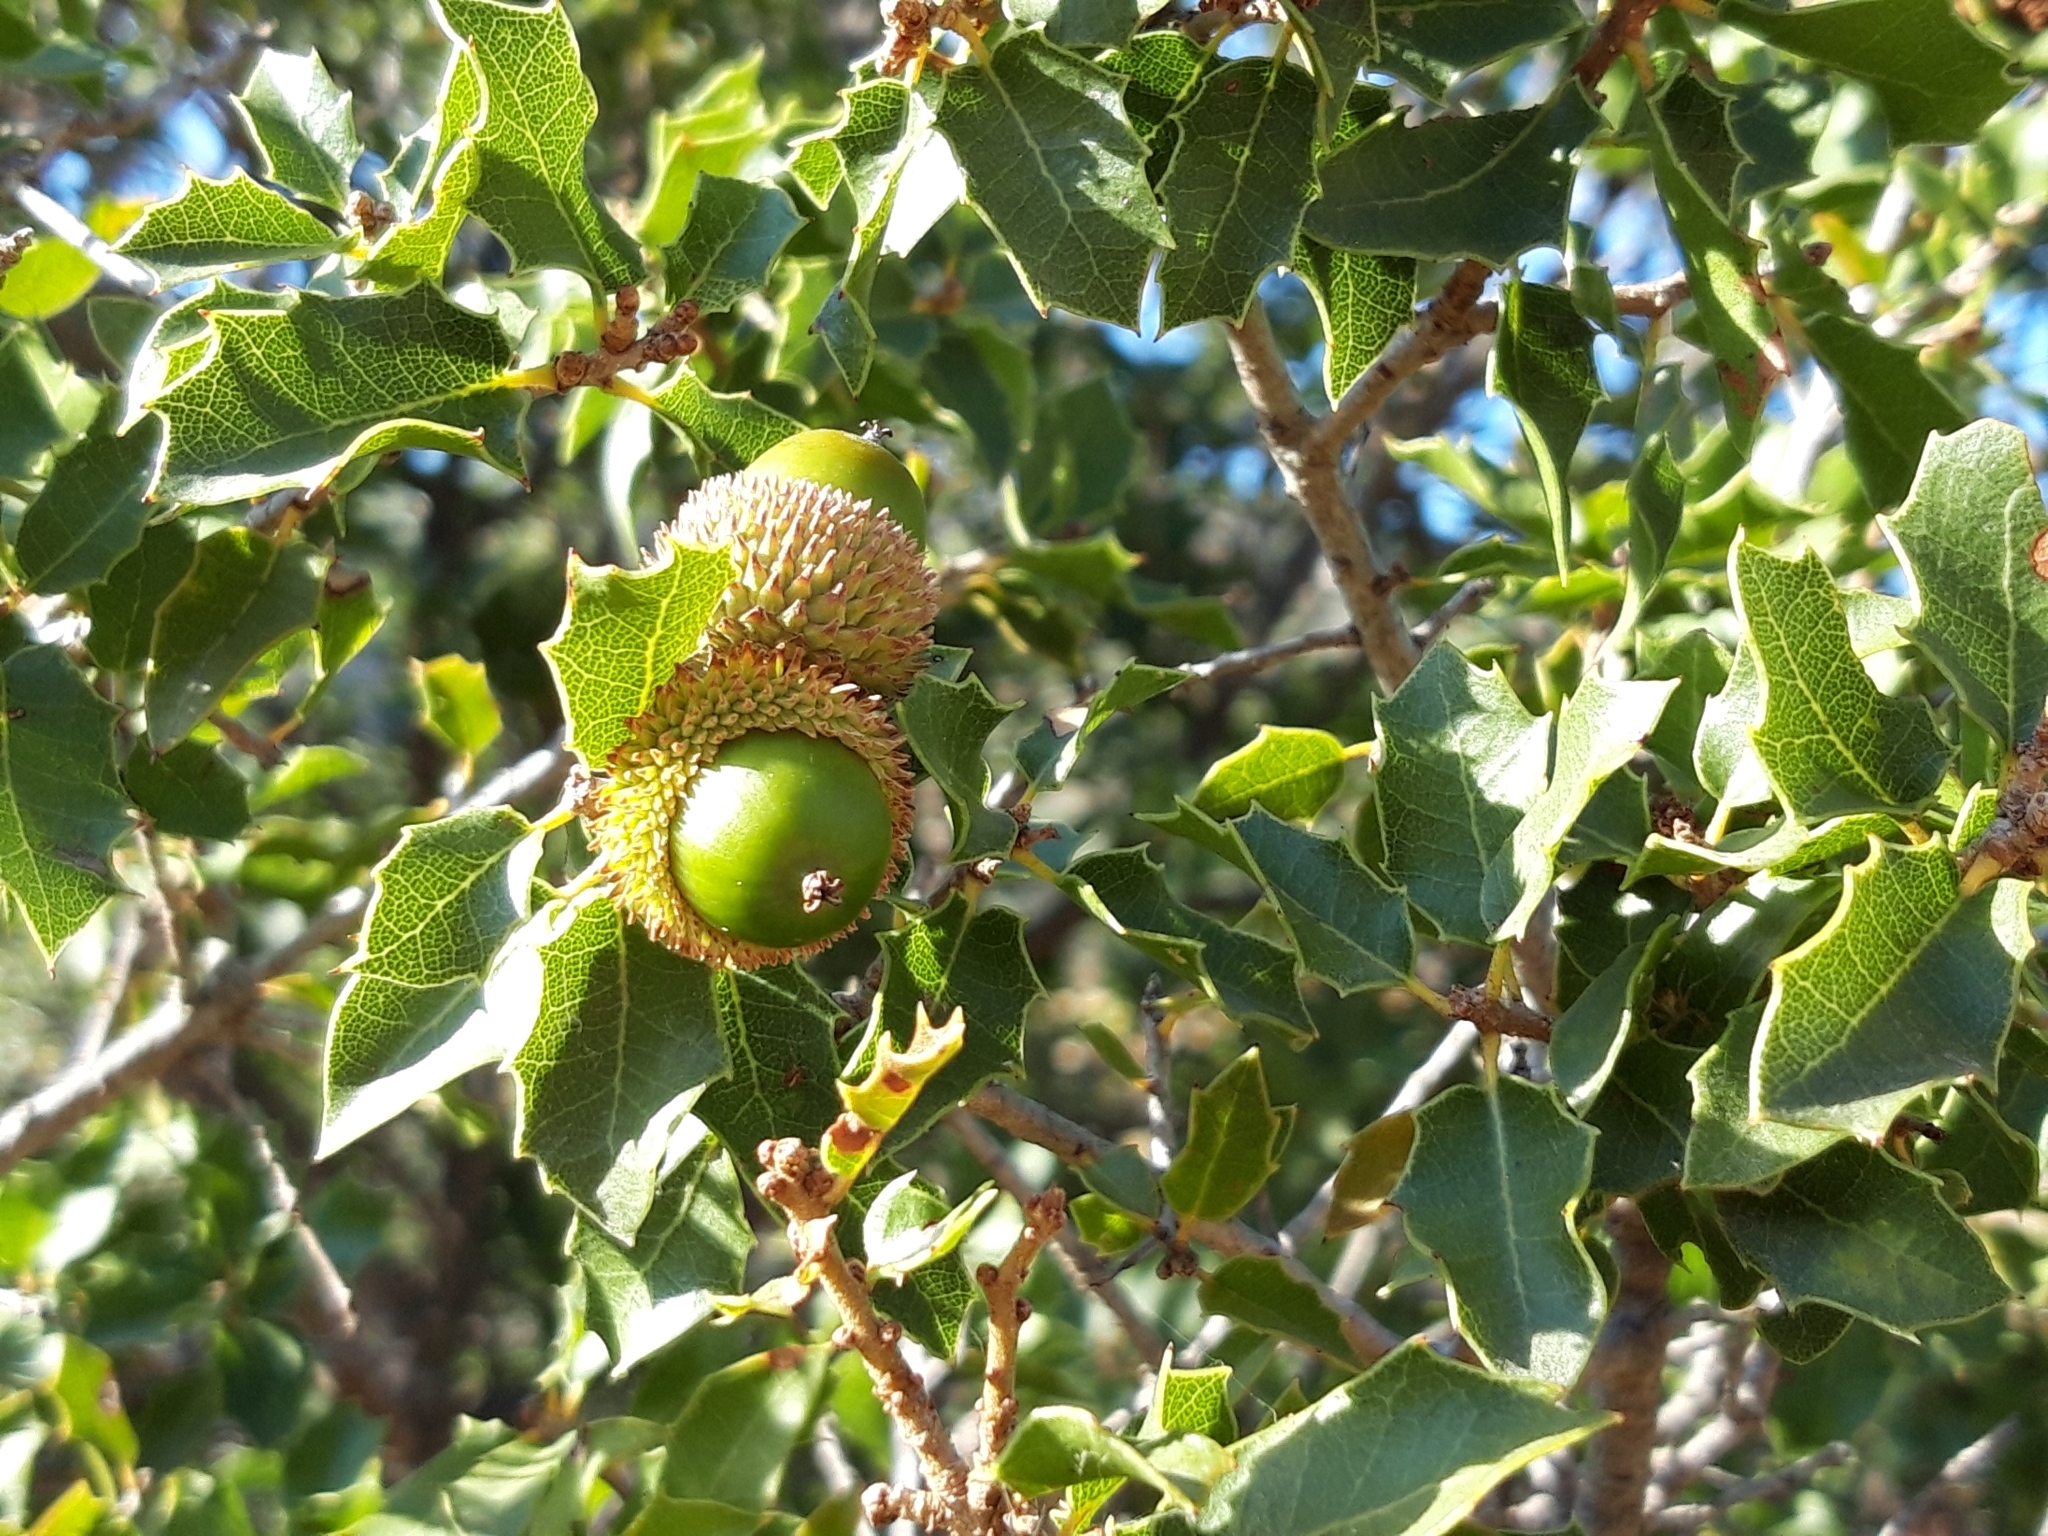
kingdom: Plantae
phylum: Tracheophyta
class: Magnoliopsida
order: Fagales
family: Fagaceae
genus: Quercus
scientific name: Quercus coccifera
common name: Kermes oak
